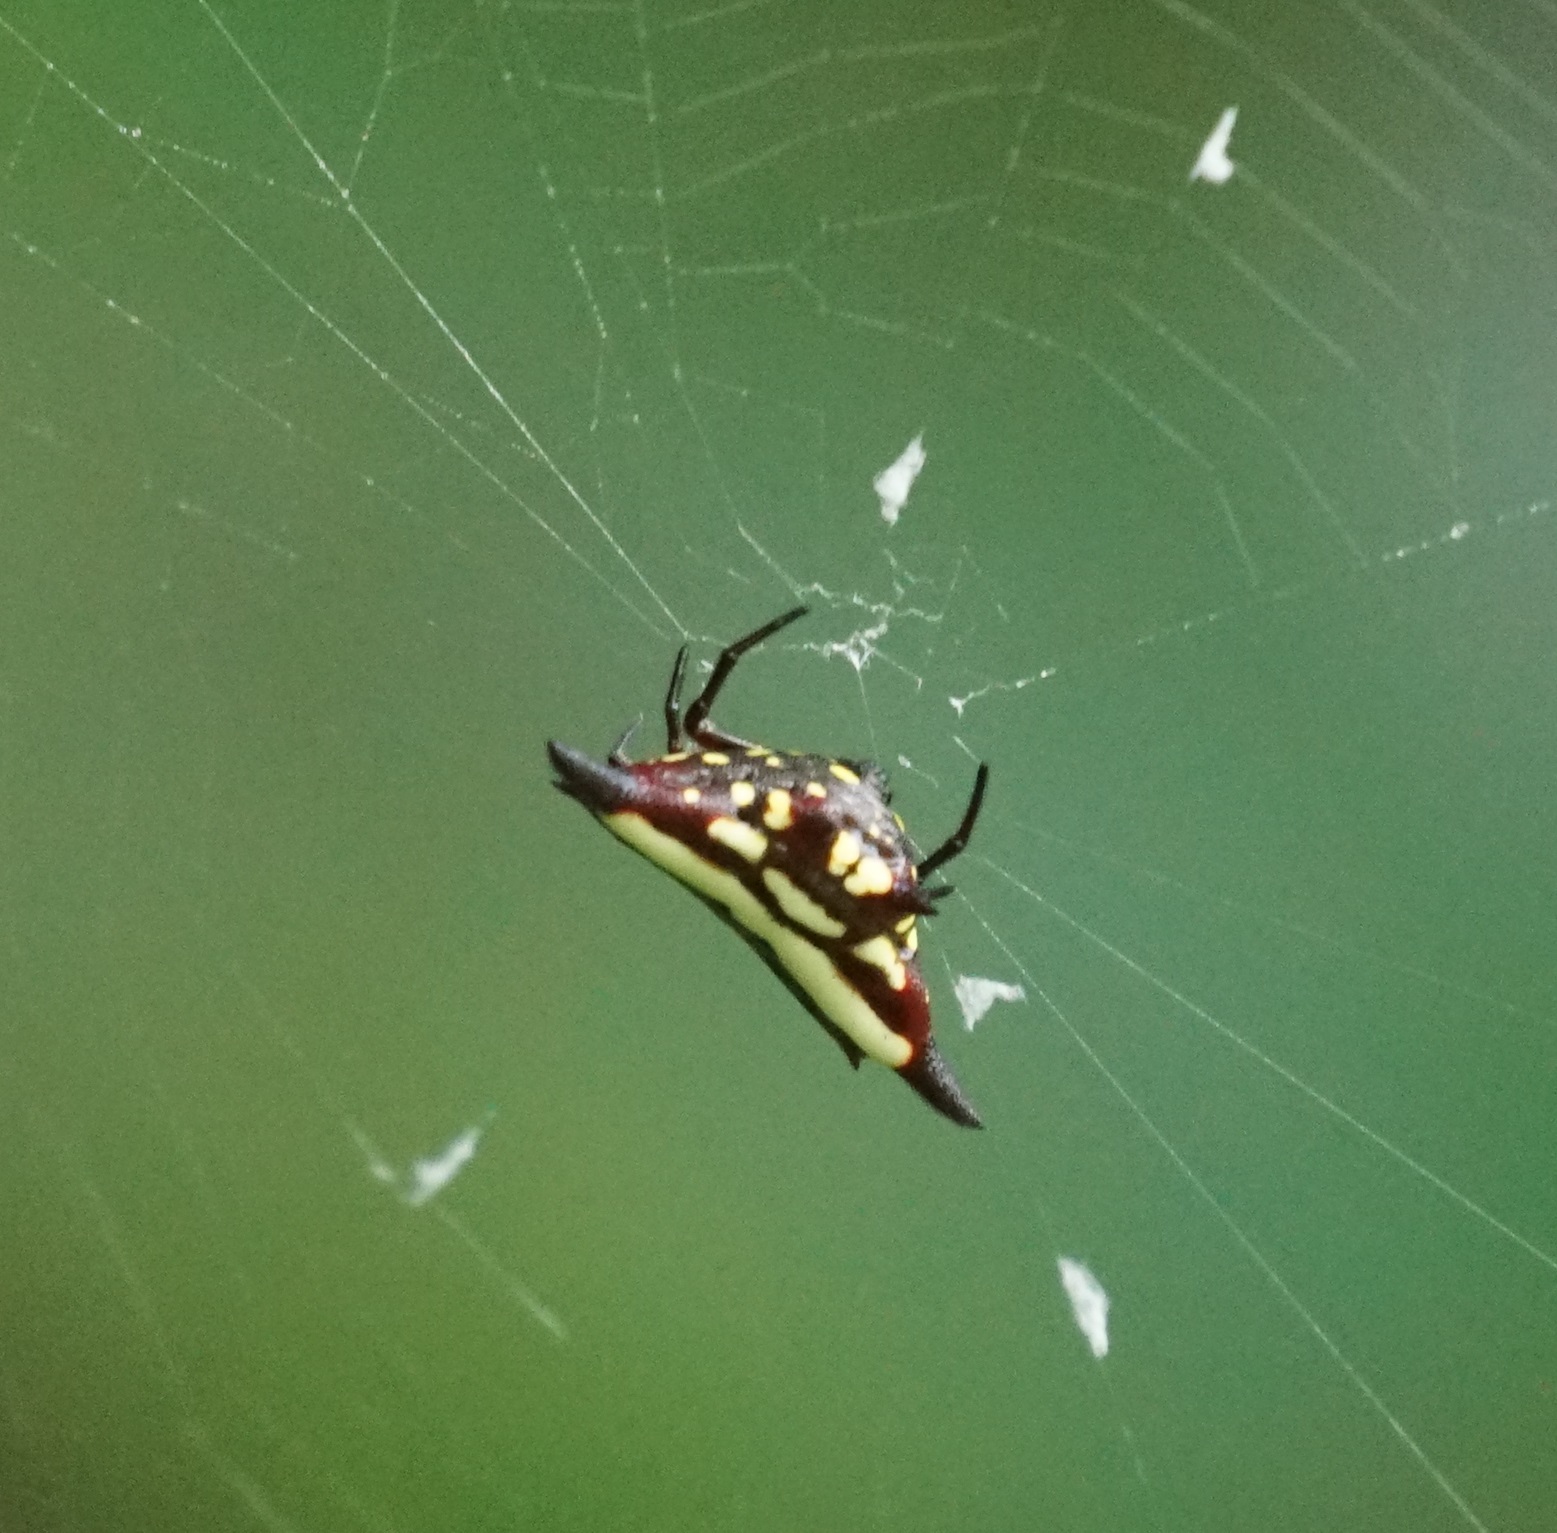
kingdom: Animalia
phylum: Arthropoda
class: Arachnida
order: Araneae
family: Araneidae
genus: Gasteracantha
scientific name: Gasteracantha fornicata
